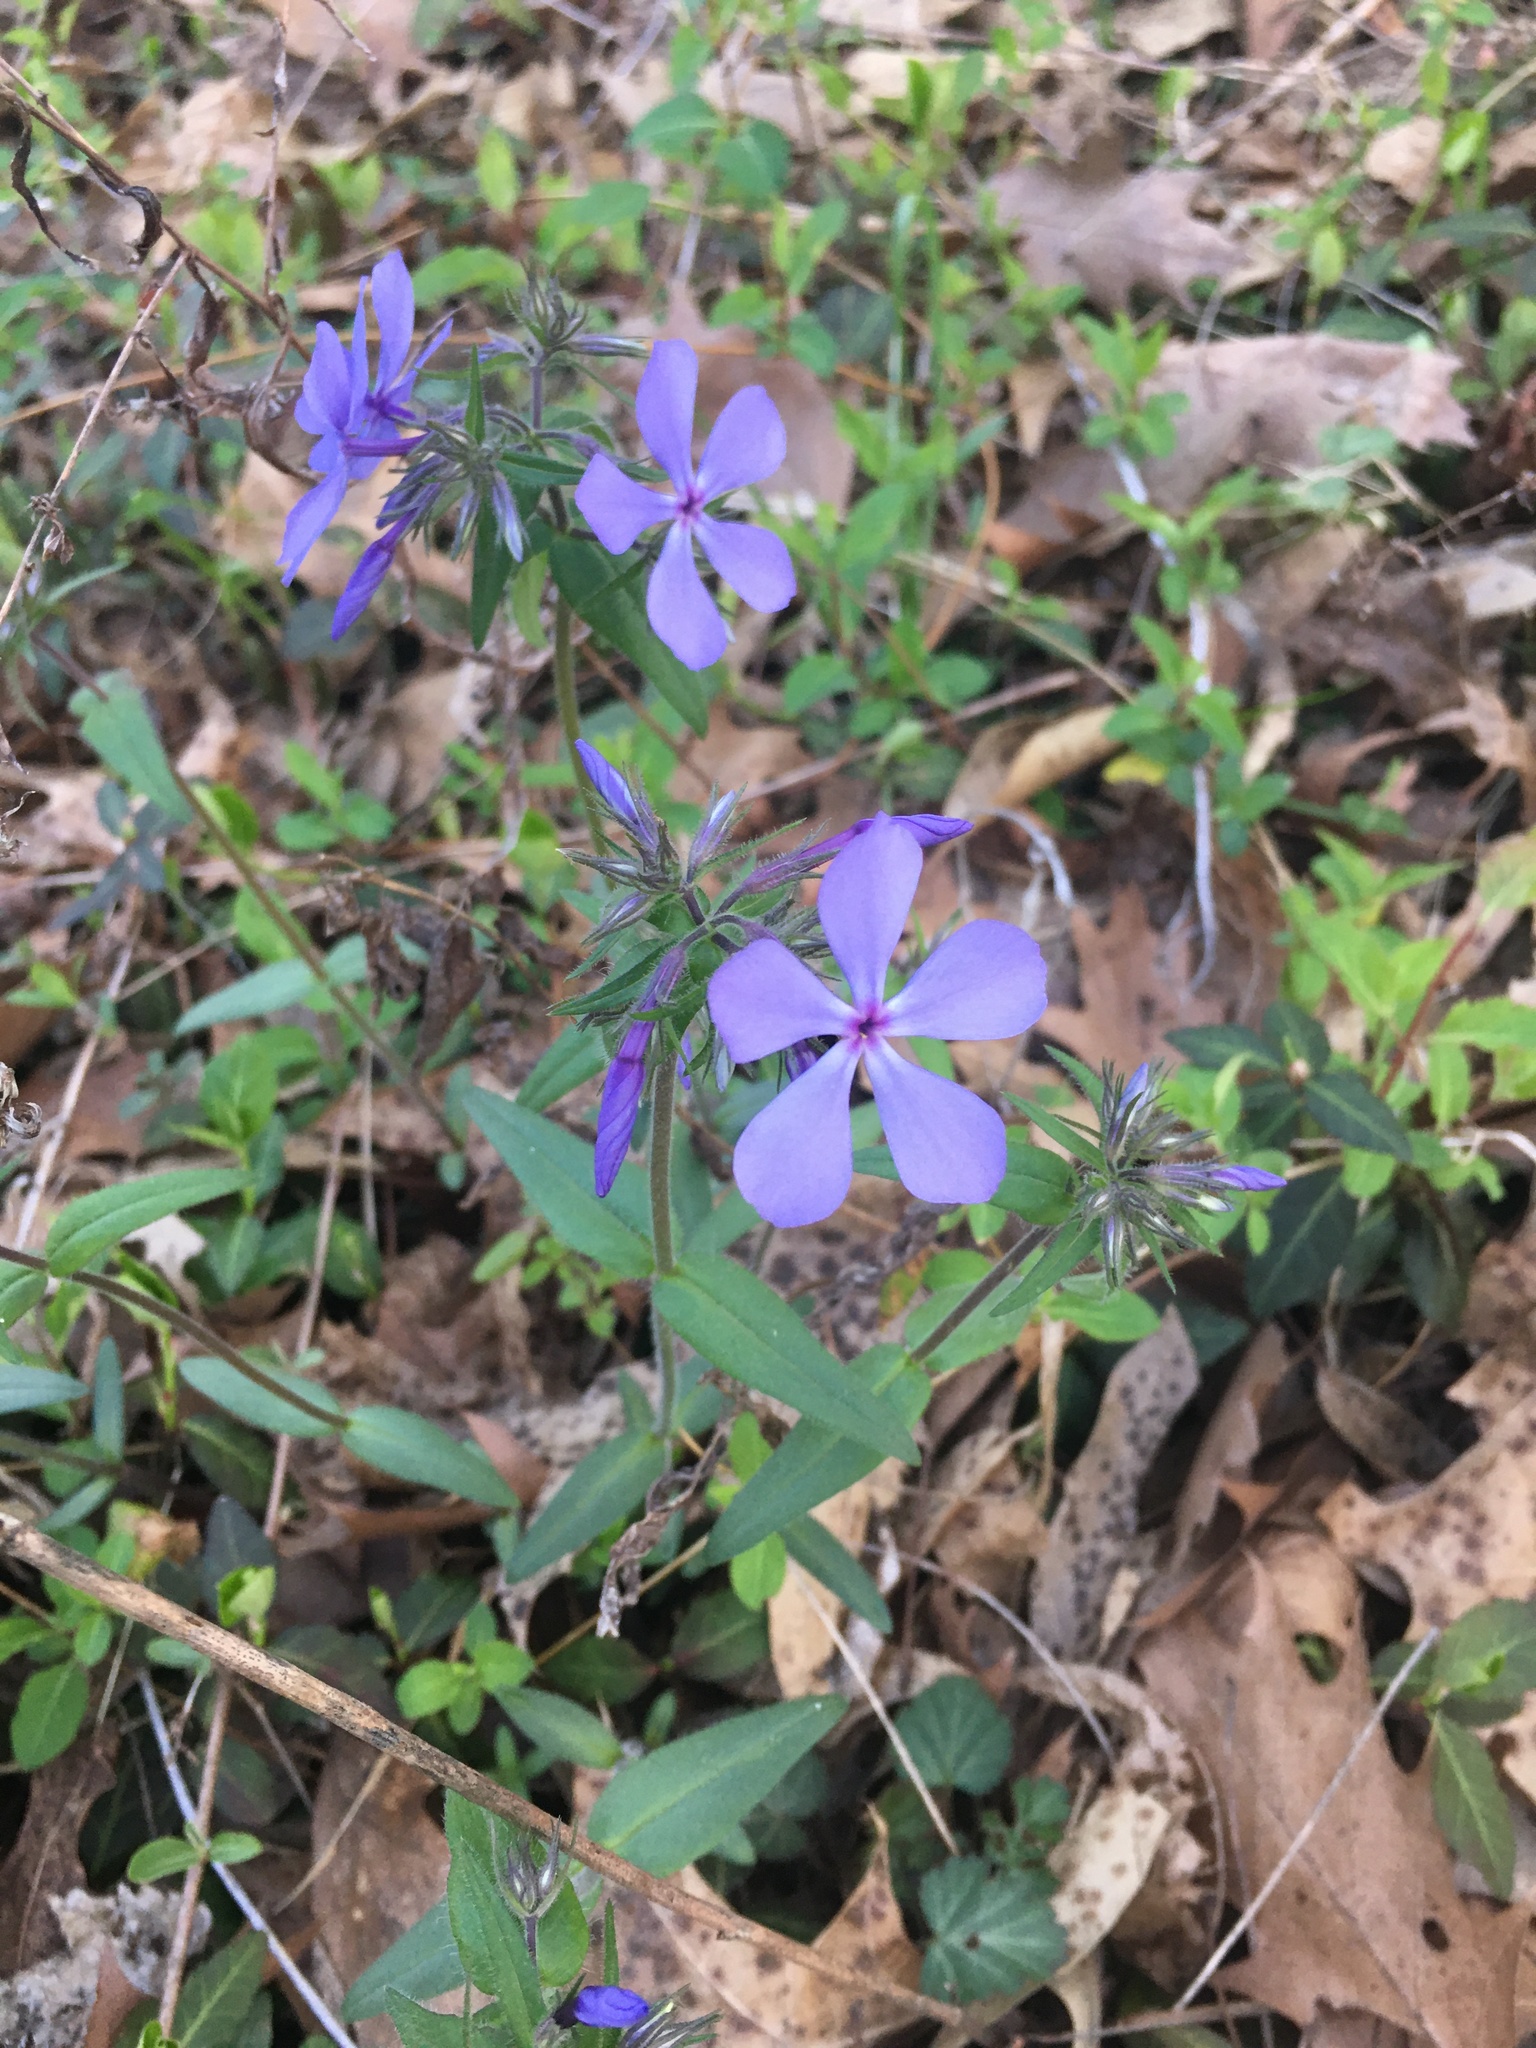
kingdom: Plantae
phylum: Tracheophyta
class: Magnoliopsida
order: Ericales
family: Polemoniaceae
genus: Phlox
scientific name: Phlox divaricata
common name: Blue phlox
